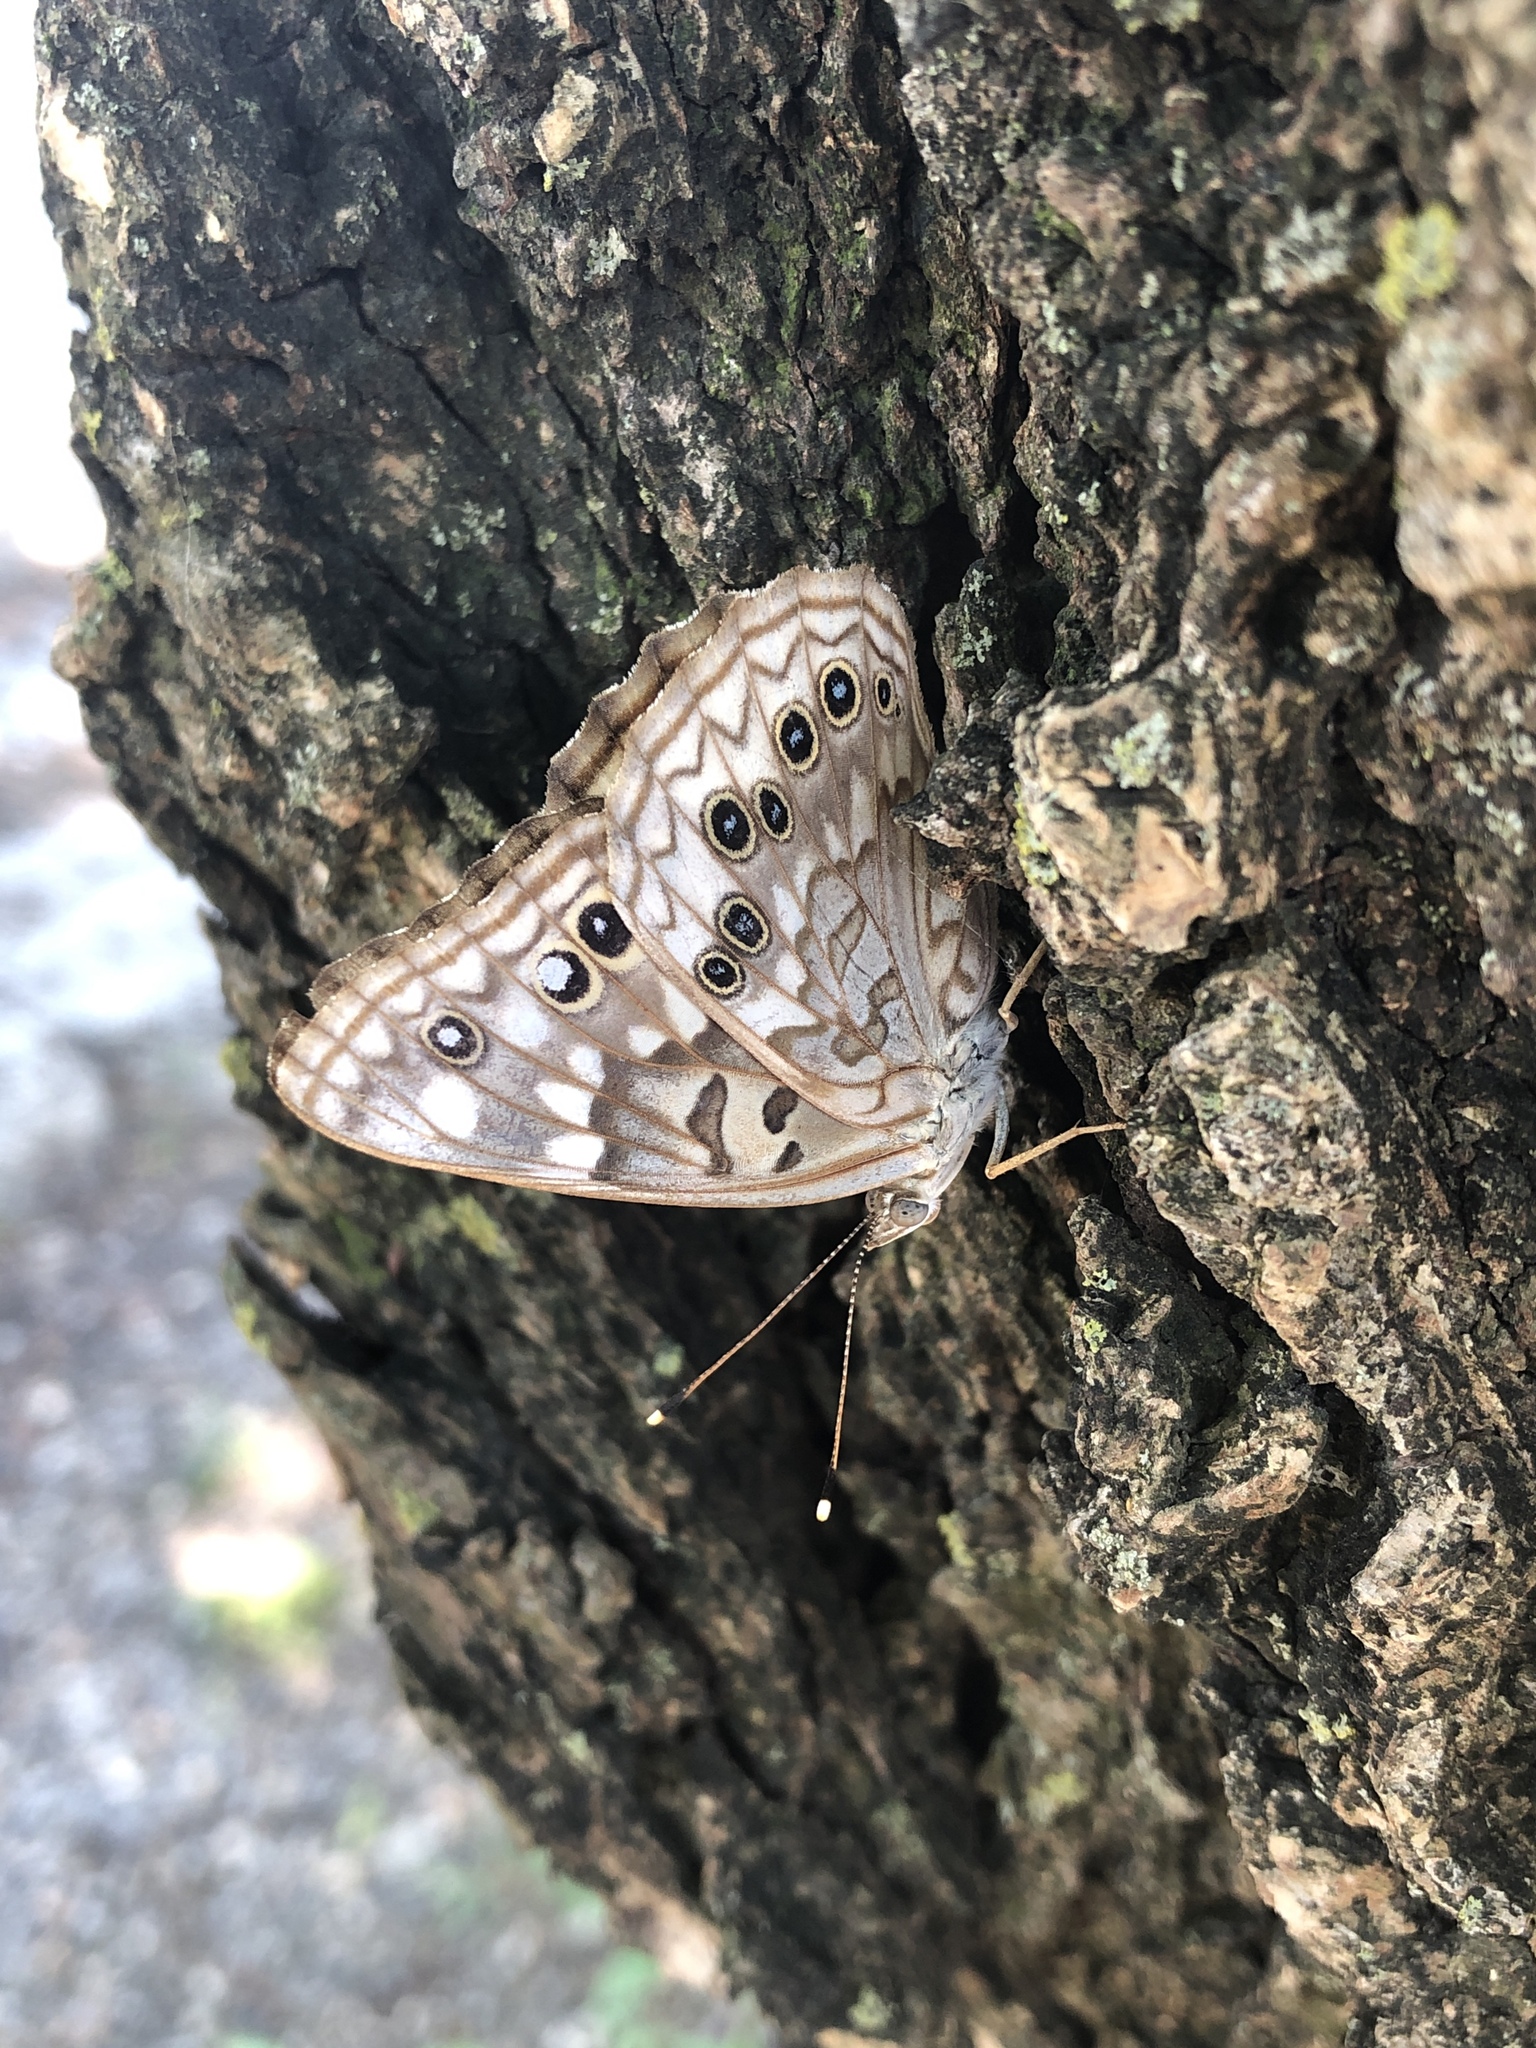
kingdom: Animalia
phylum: Arthropoda
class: Insecta
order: Lepidoptera
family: Nymphalidae
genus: Asterocampa
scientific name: Asterocampa celtis
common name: Hackberry emperor
